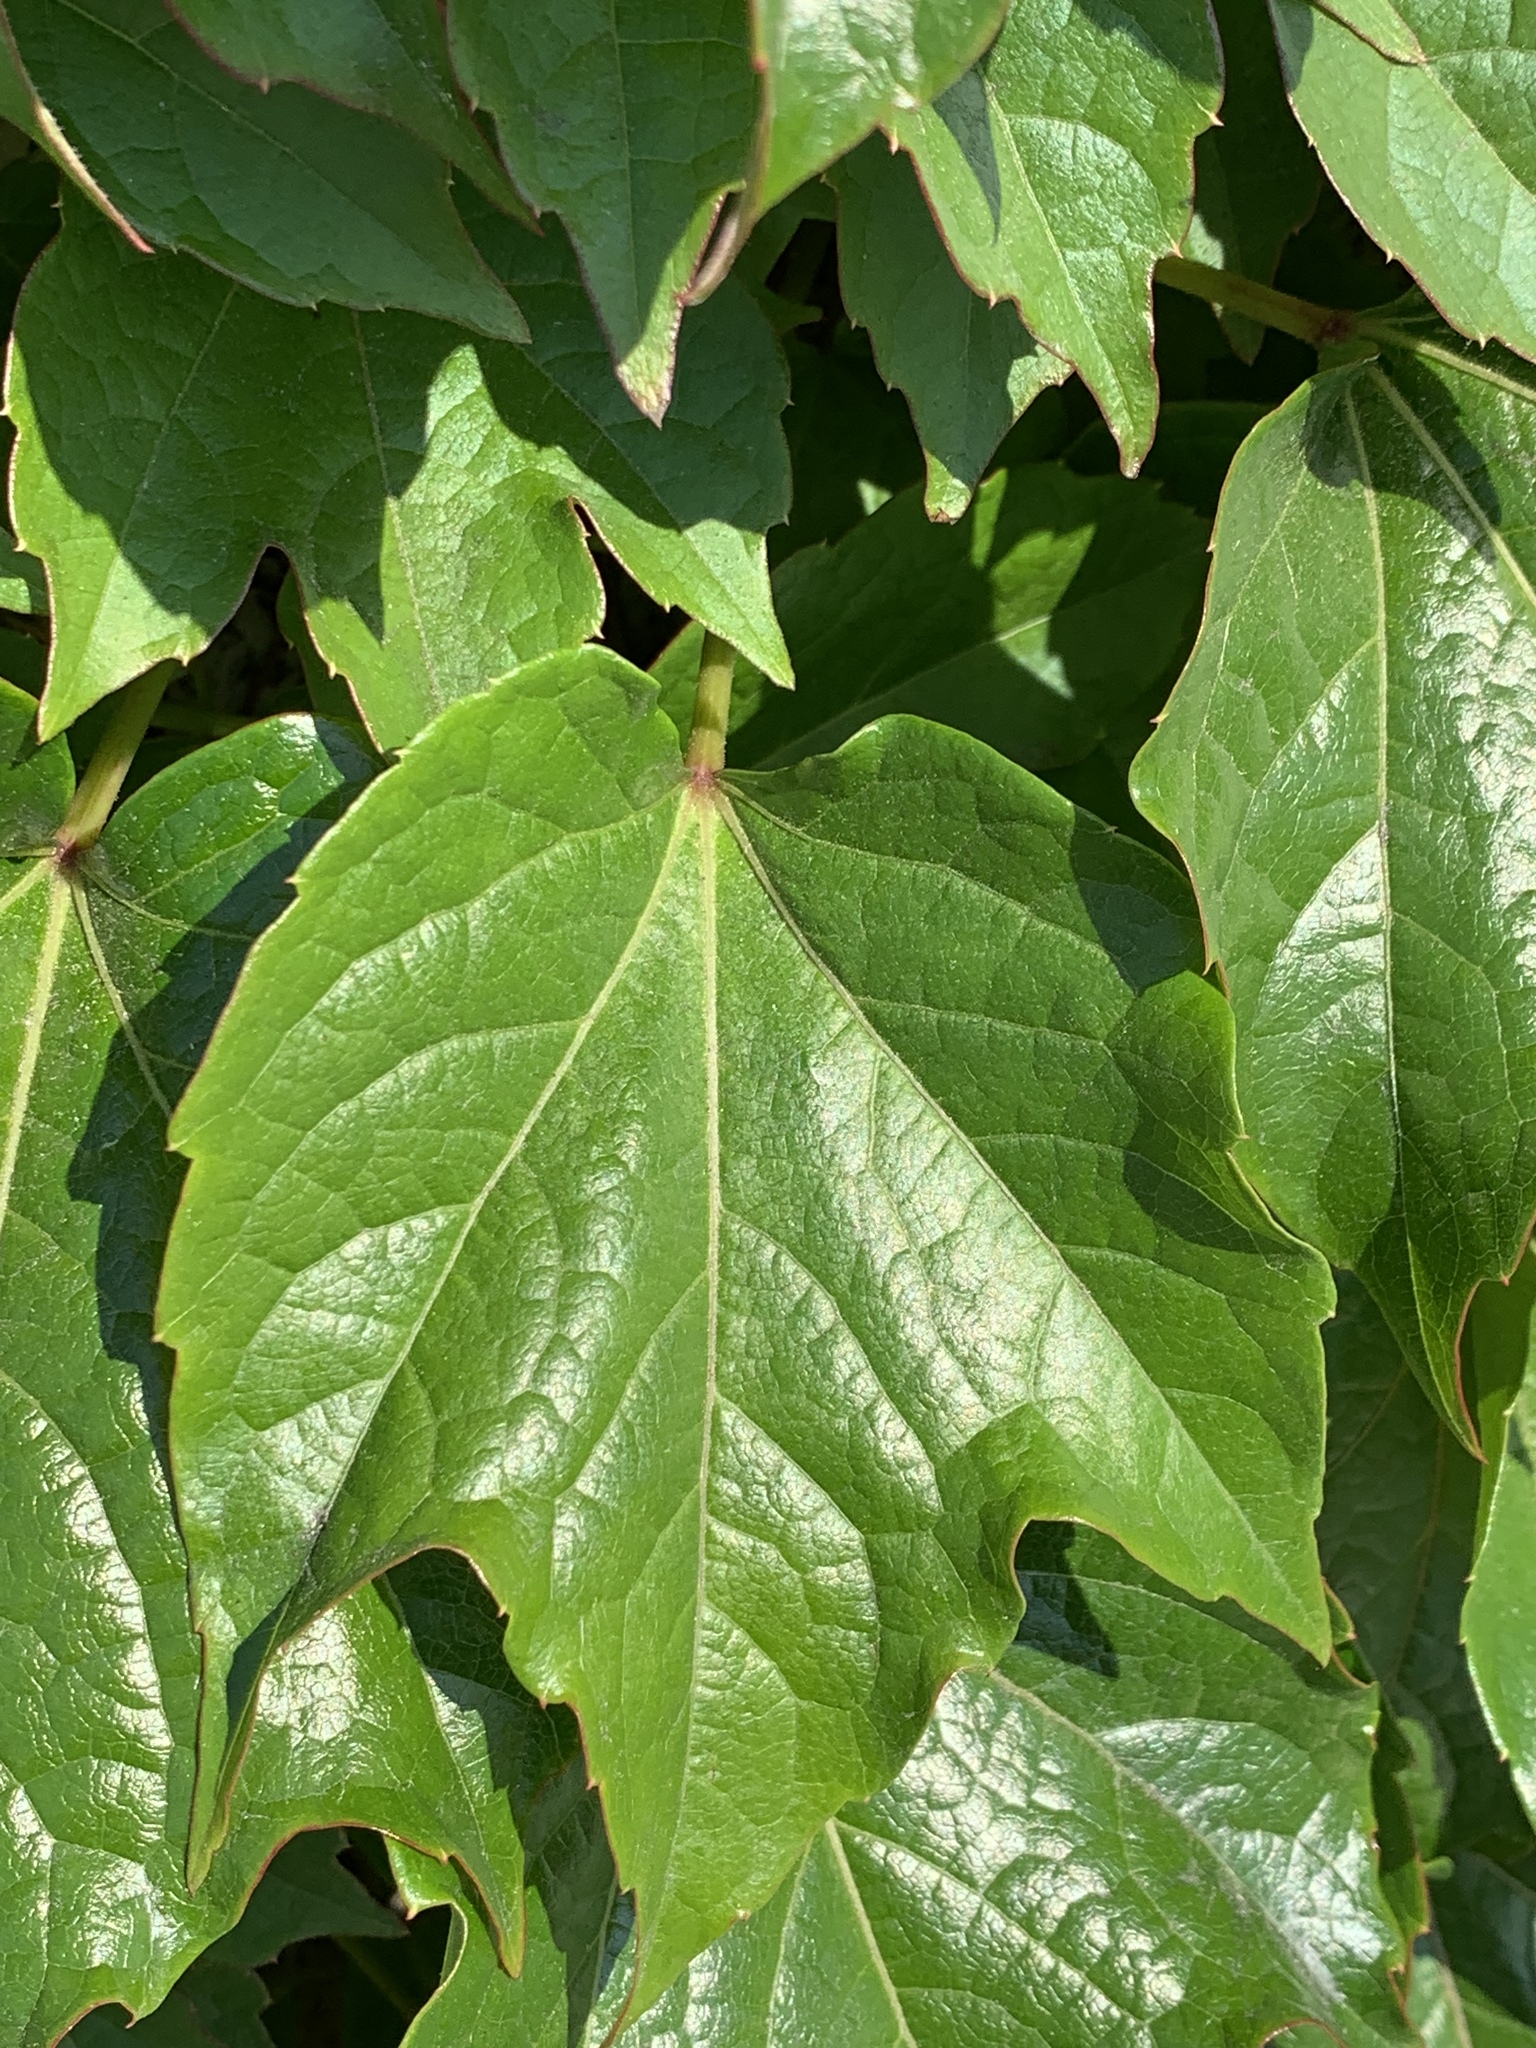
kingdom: Plantae
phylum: Tracheophyta
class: Magnoliopsida
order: Vitales
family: Vitaceae
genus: Parthenocissus
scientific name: Parthenocissus tricuspidata
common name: Boston ivy
